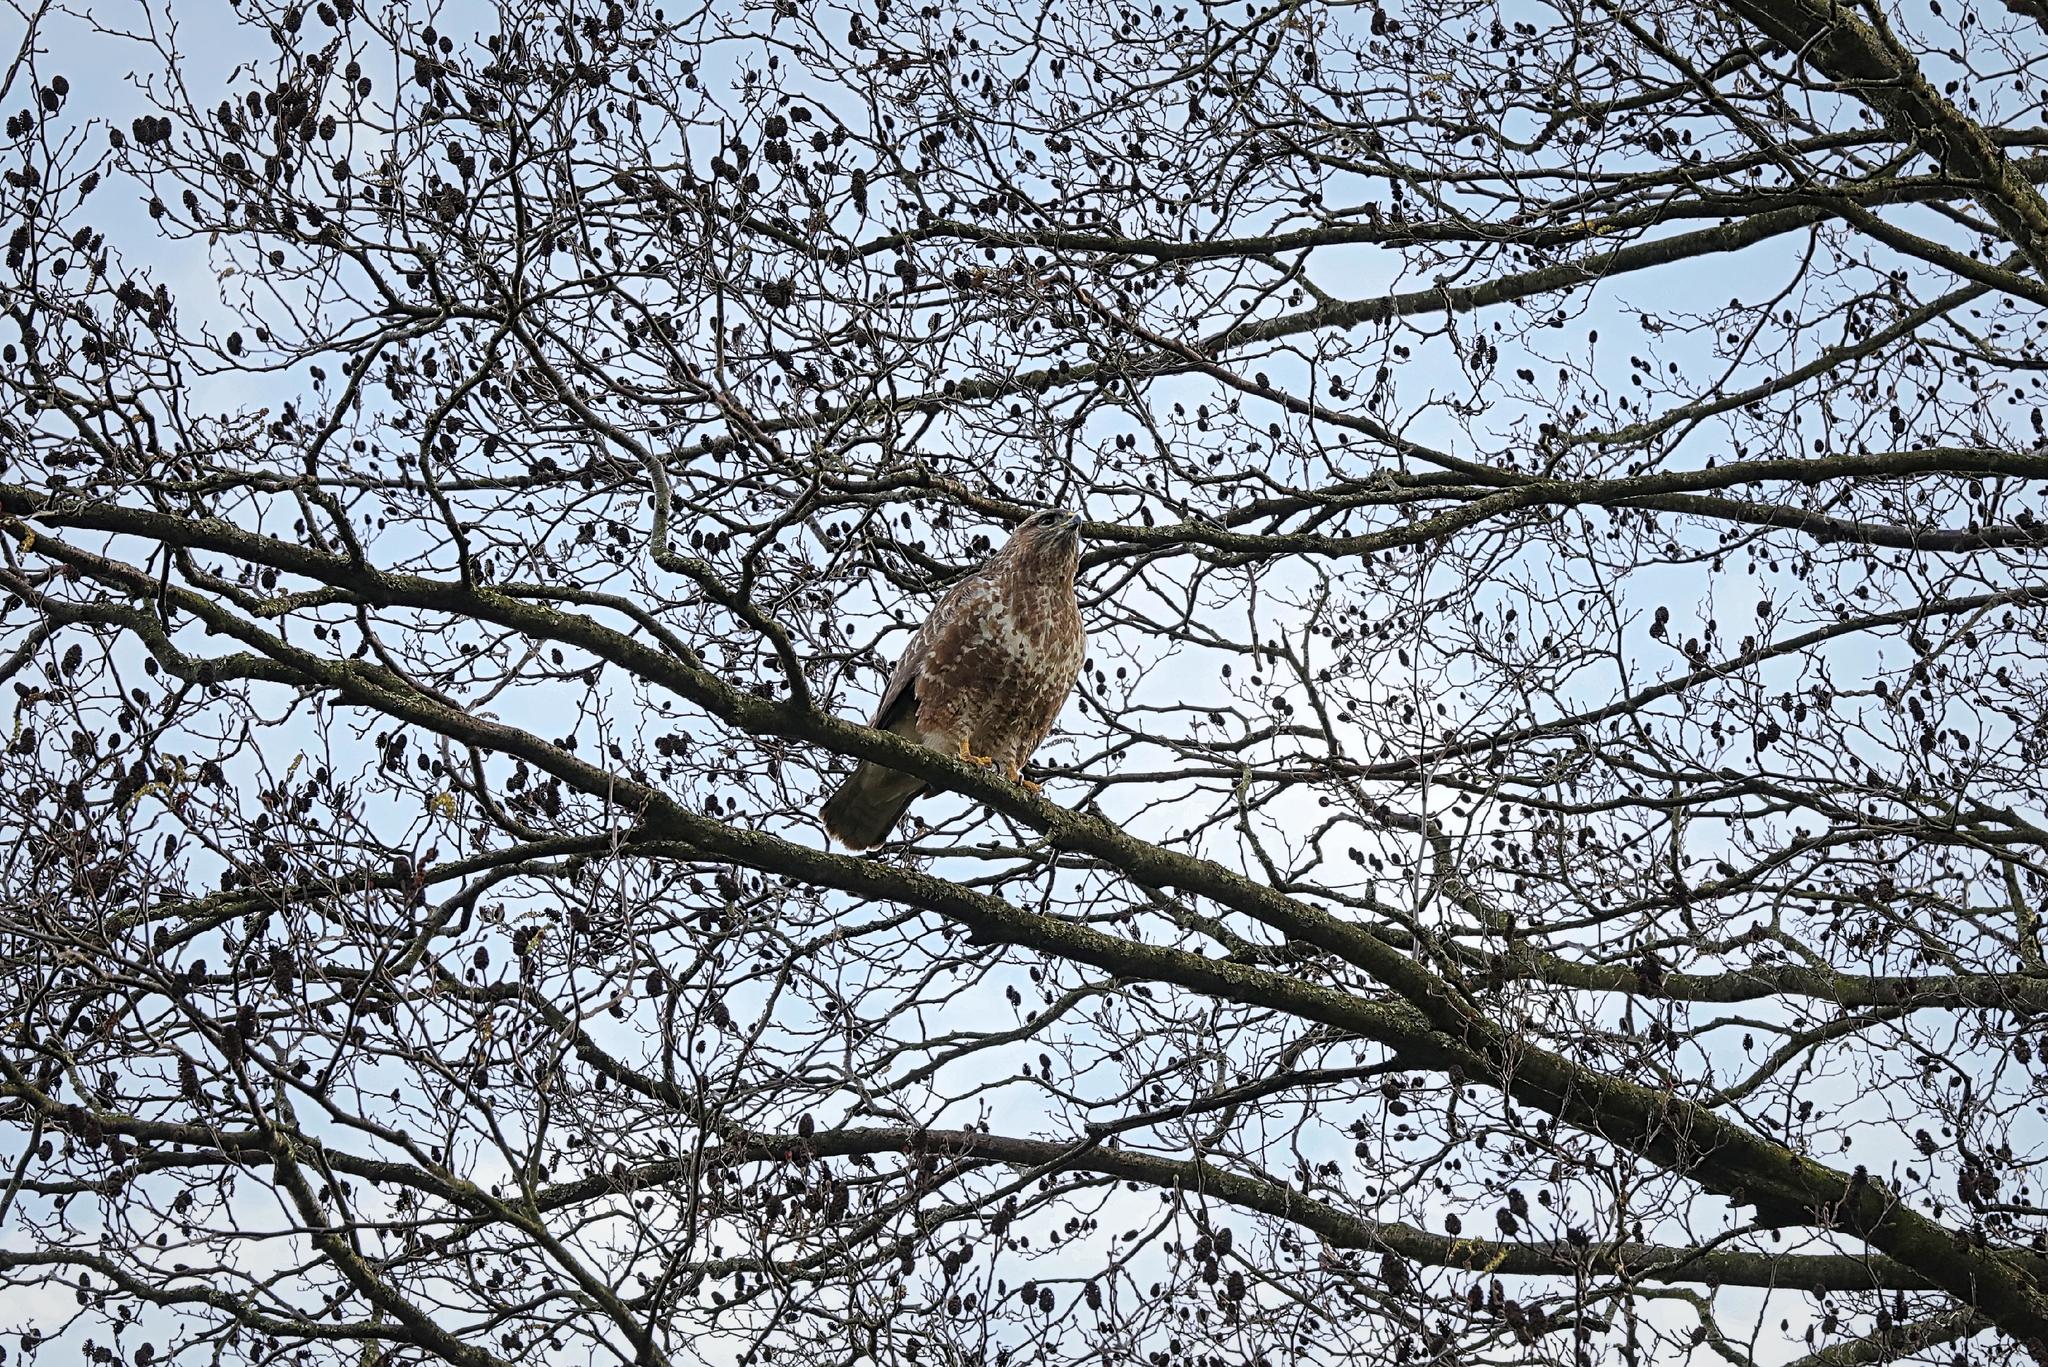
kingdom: Animalia
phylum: Chordata
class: Aves
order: Accipitriformes
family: Accipitridae
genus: Buteo
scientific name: Buteo buteo
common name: Common buzzard
